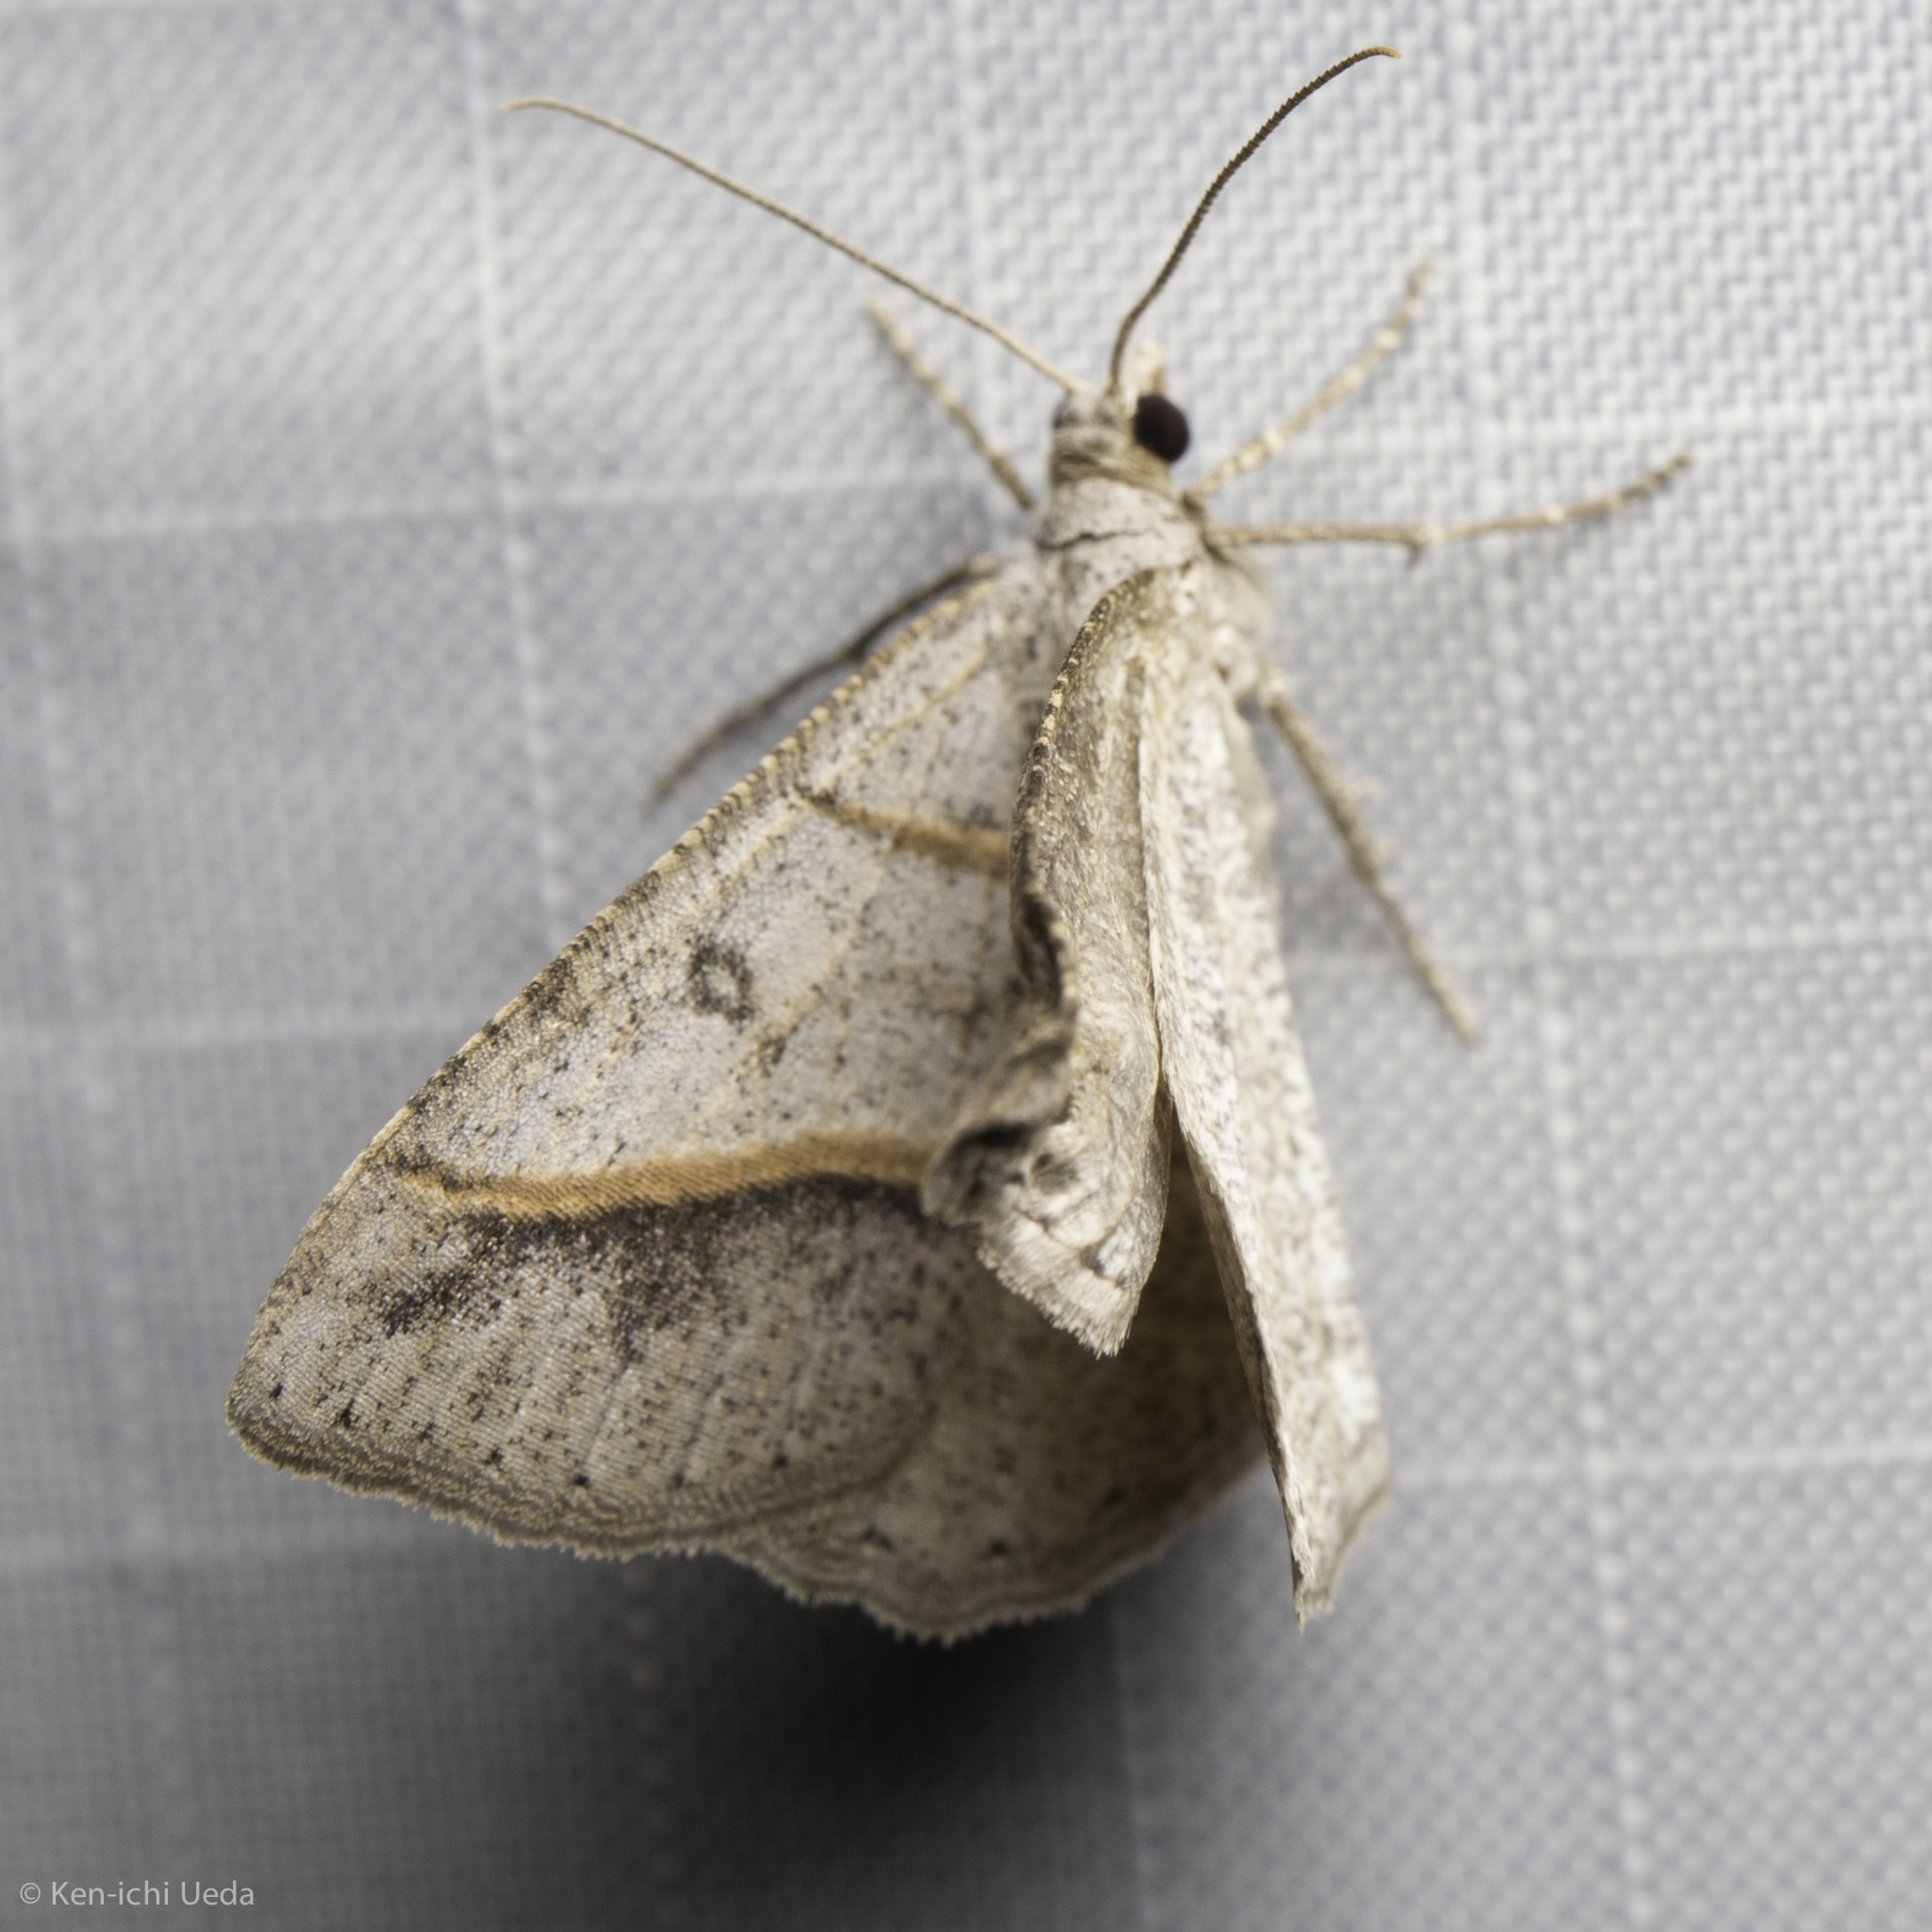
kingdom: Animalia
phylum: Arthropoda
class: Insecta
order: Lepidoptera
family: Geometridae
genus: Digrammia
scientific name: Digrammia neptaria
